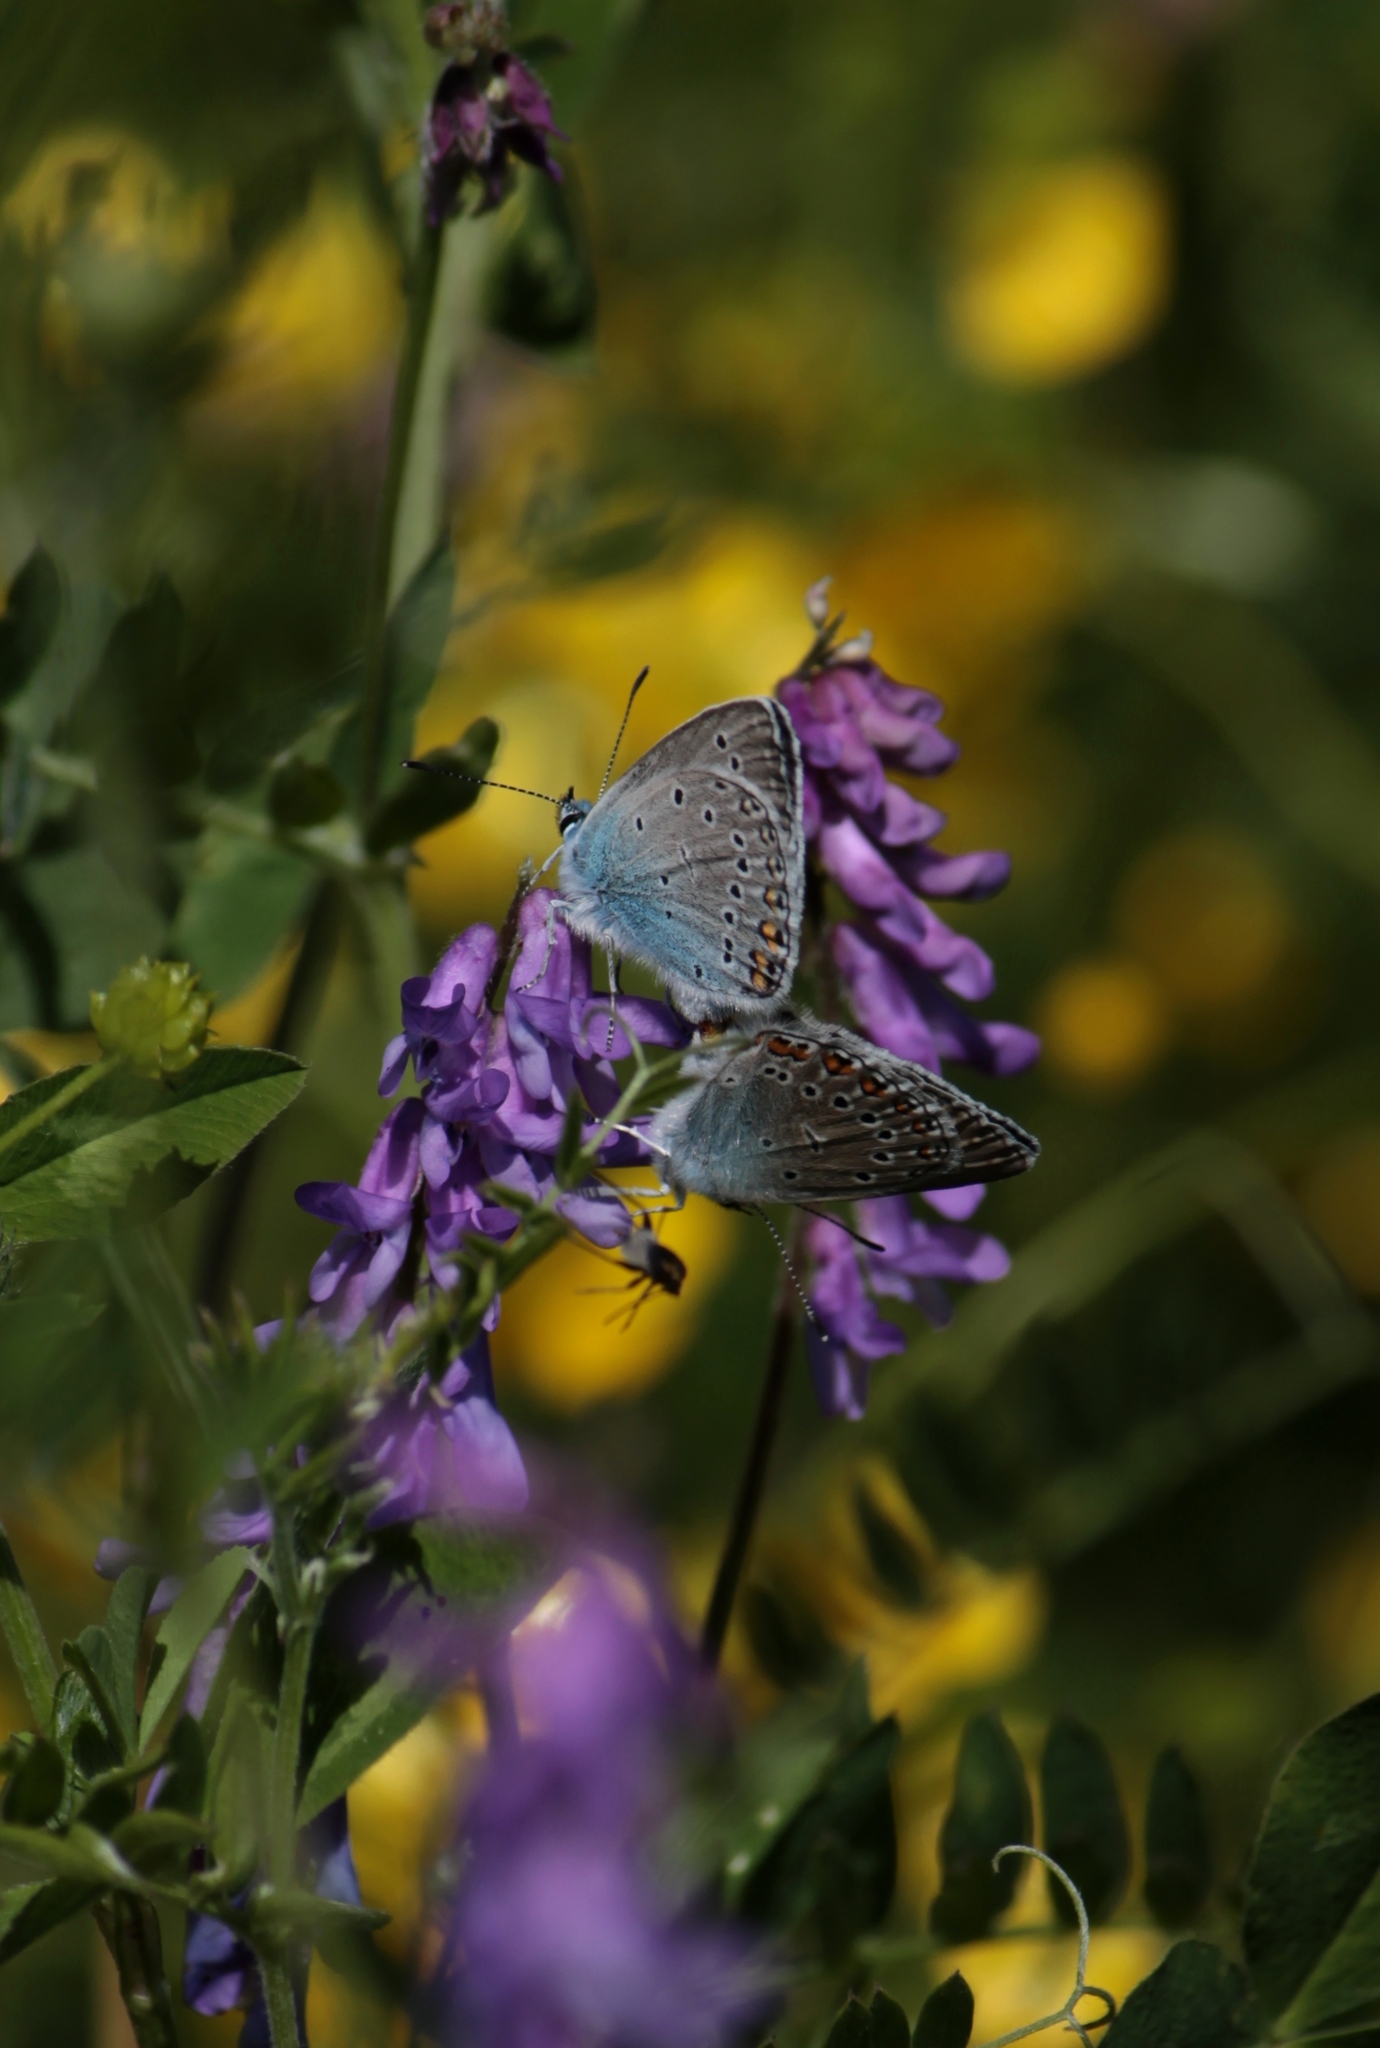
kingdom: Animalia
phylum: Arthropoda
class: Insecta
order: Lepidoptera
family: Lycaenidae
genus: Plebejus
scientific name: Plebejus amanda
